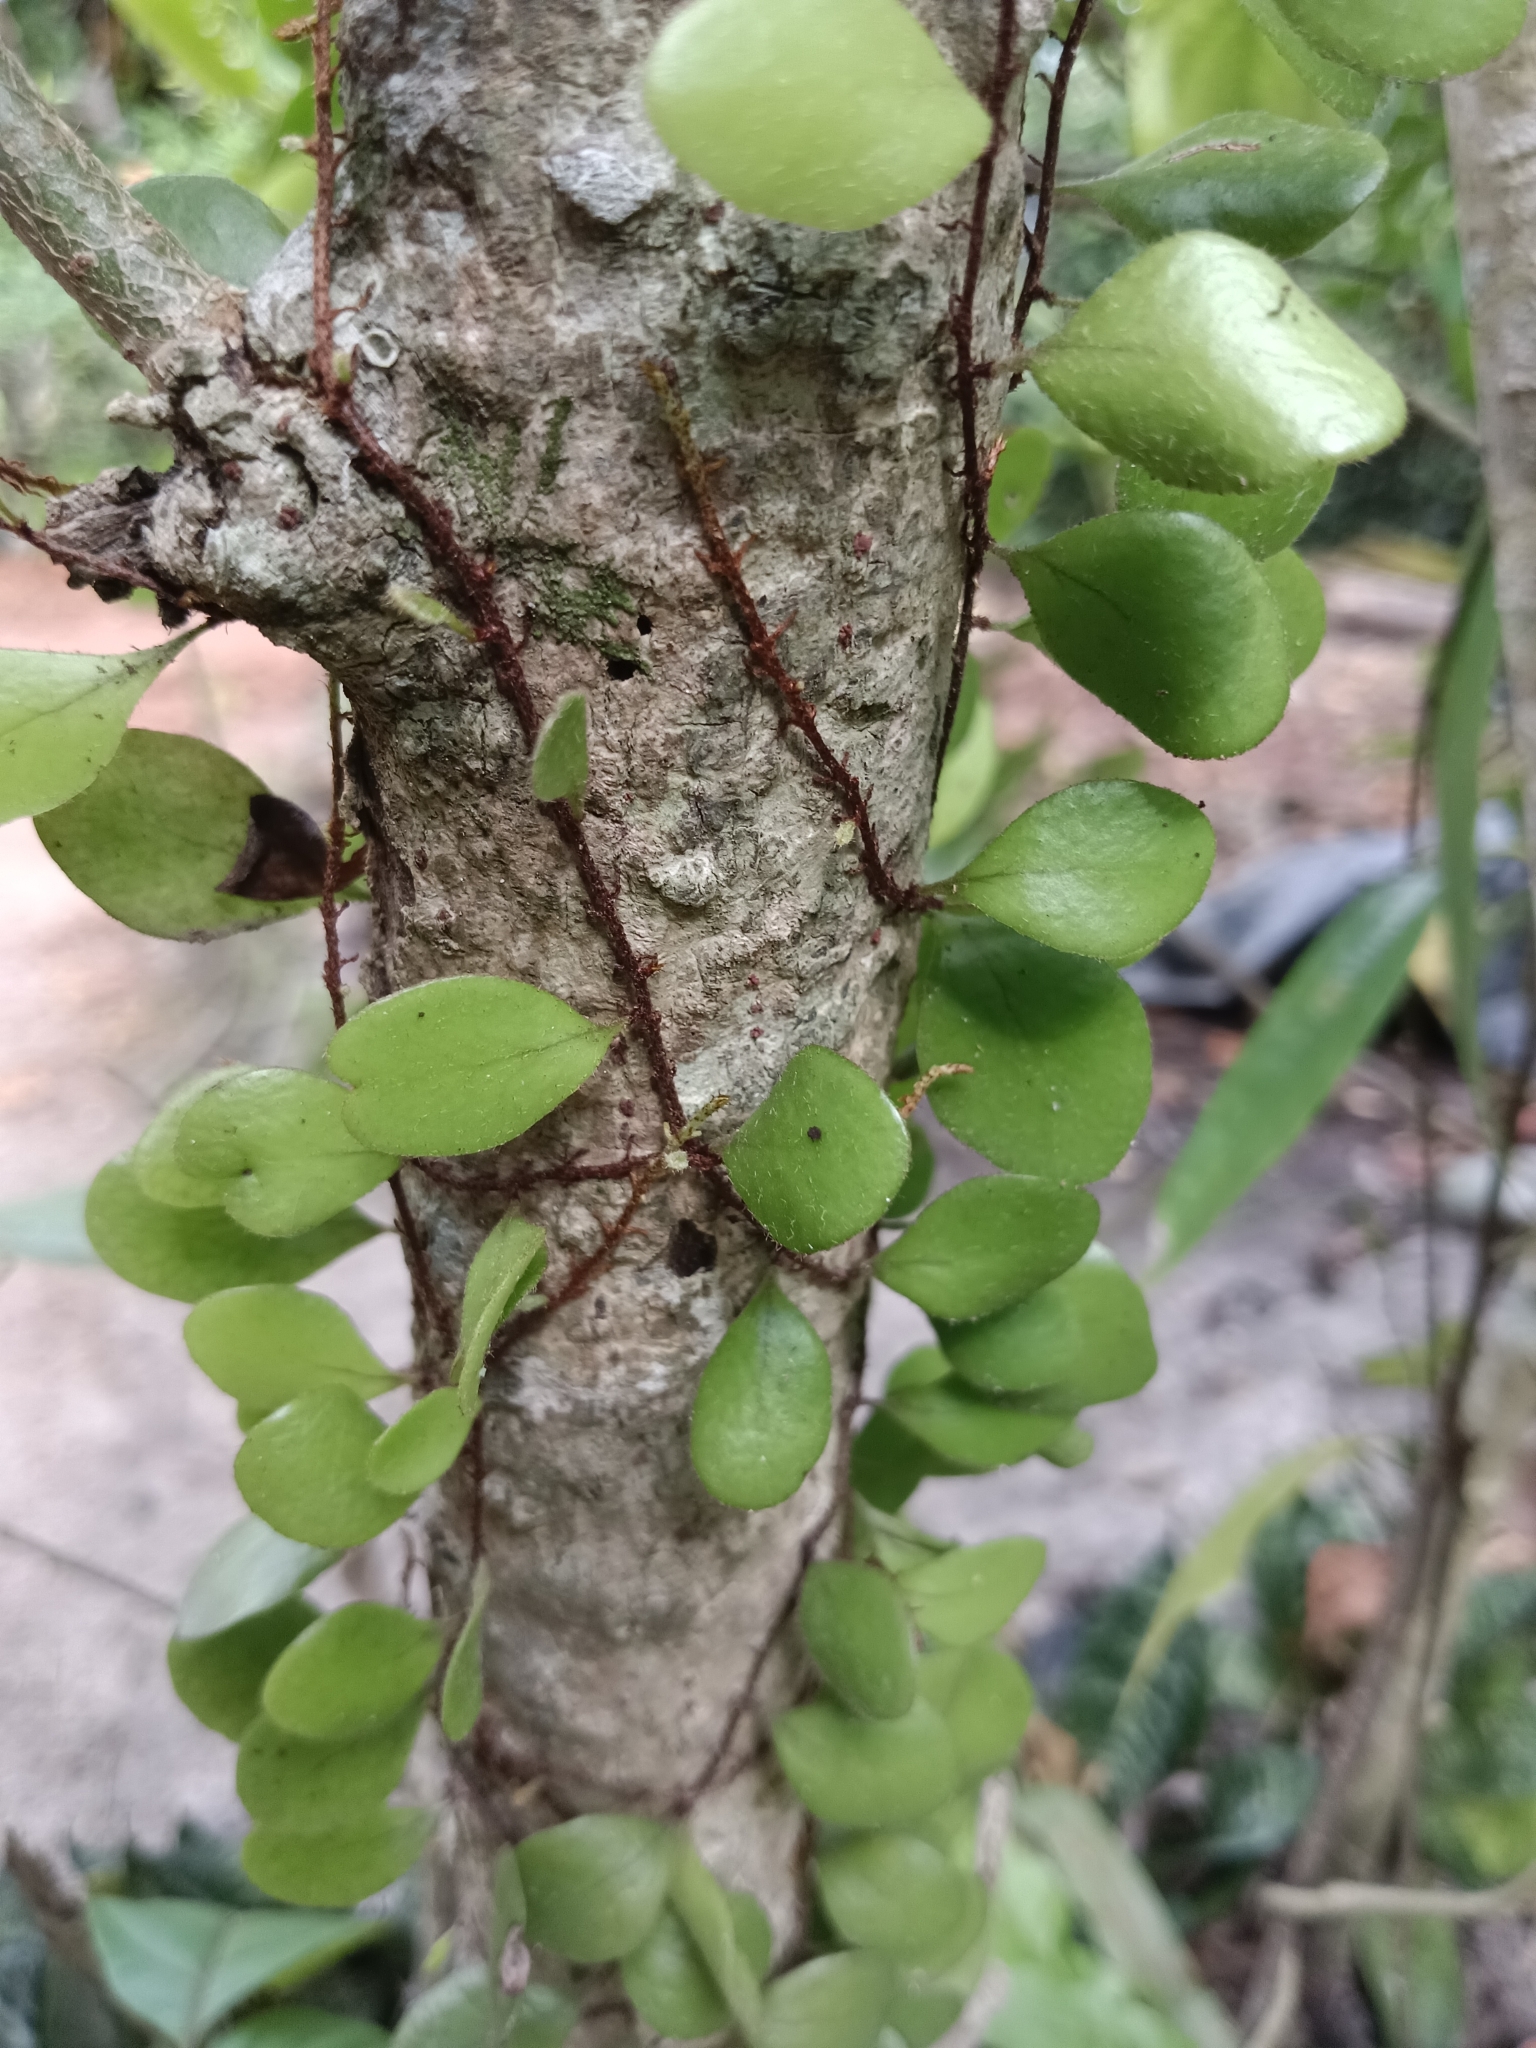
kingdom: Plantae
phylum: Tracheophyta
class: Polypodiopsida
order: Polypodiales
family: Polypodiaceae
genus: Pyrrosia
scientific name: Pyrrosia piloselloides
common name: Epiphytic creeping fern
